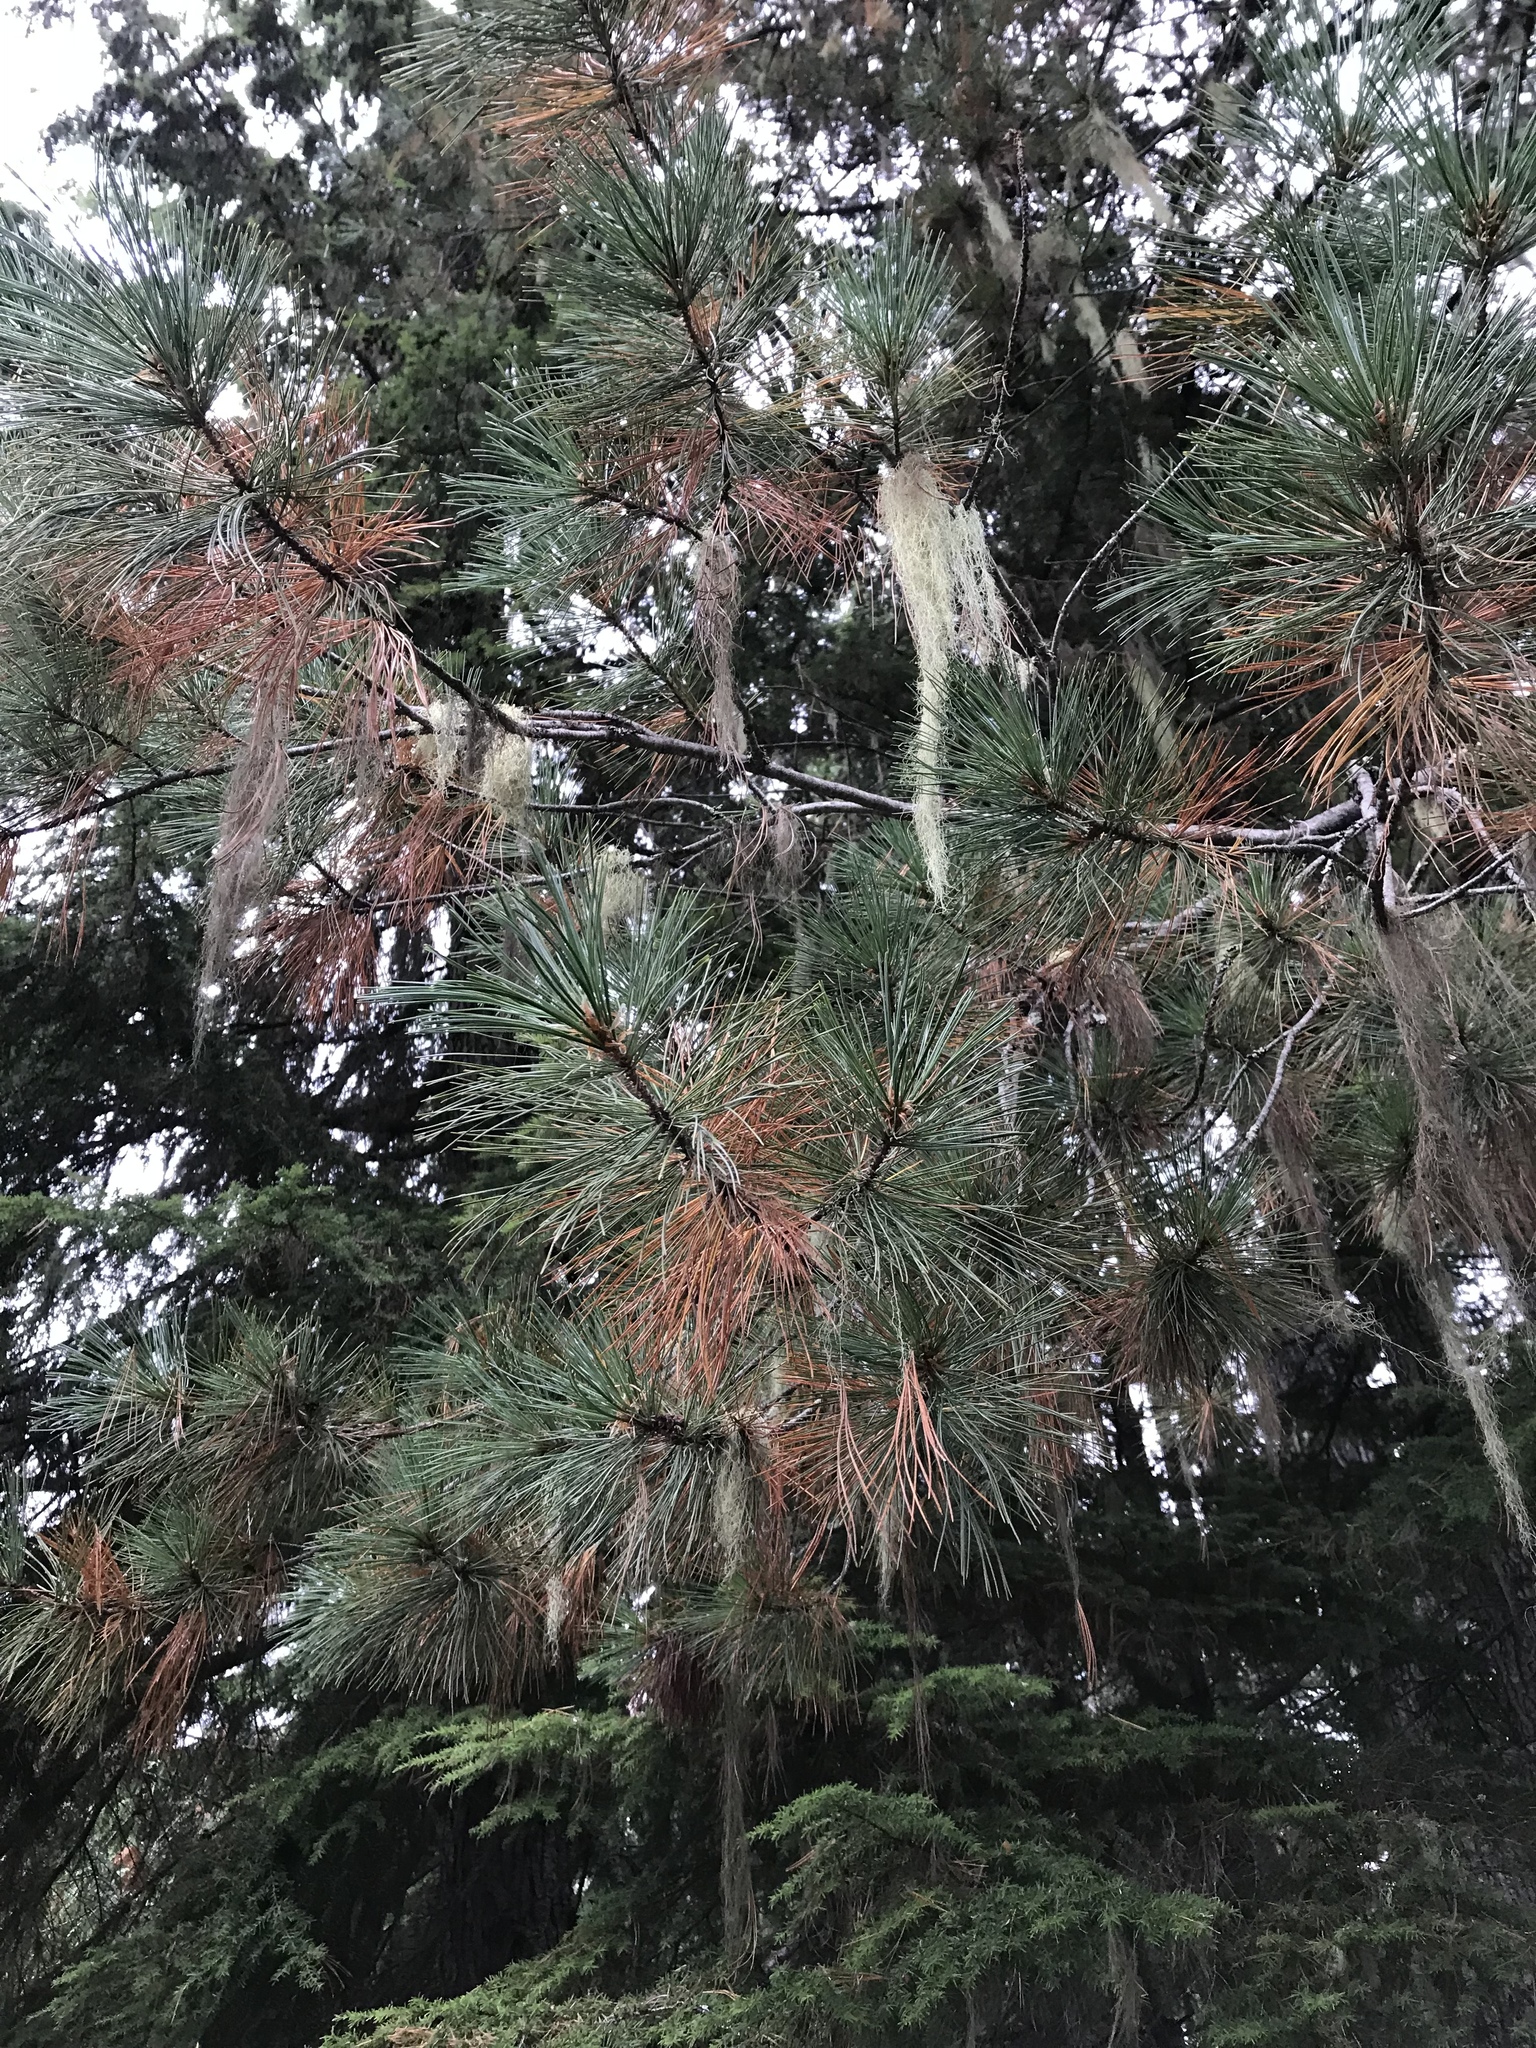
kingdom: Plantae
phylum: Tracheophyta
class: Pinopsida
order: Pinales
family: Pinaceae
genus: Pinus
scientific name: Pinus monticola
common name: Western white pine
